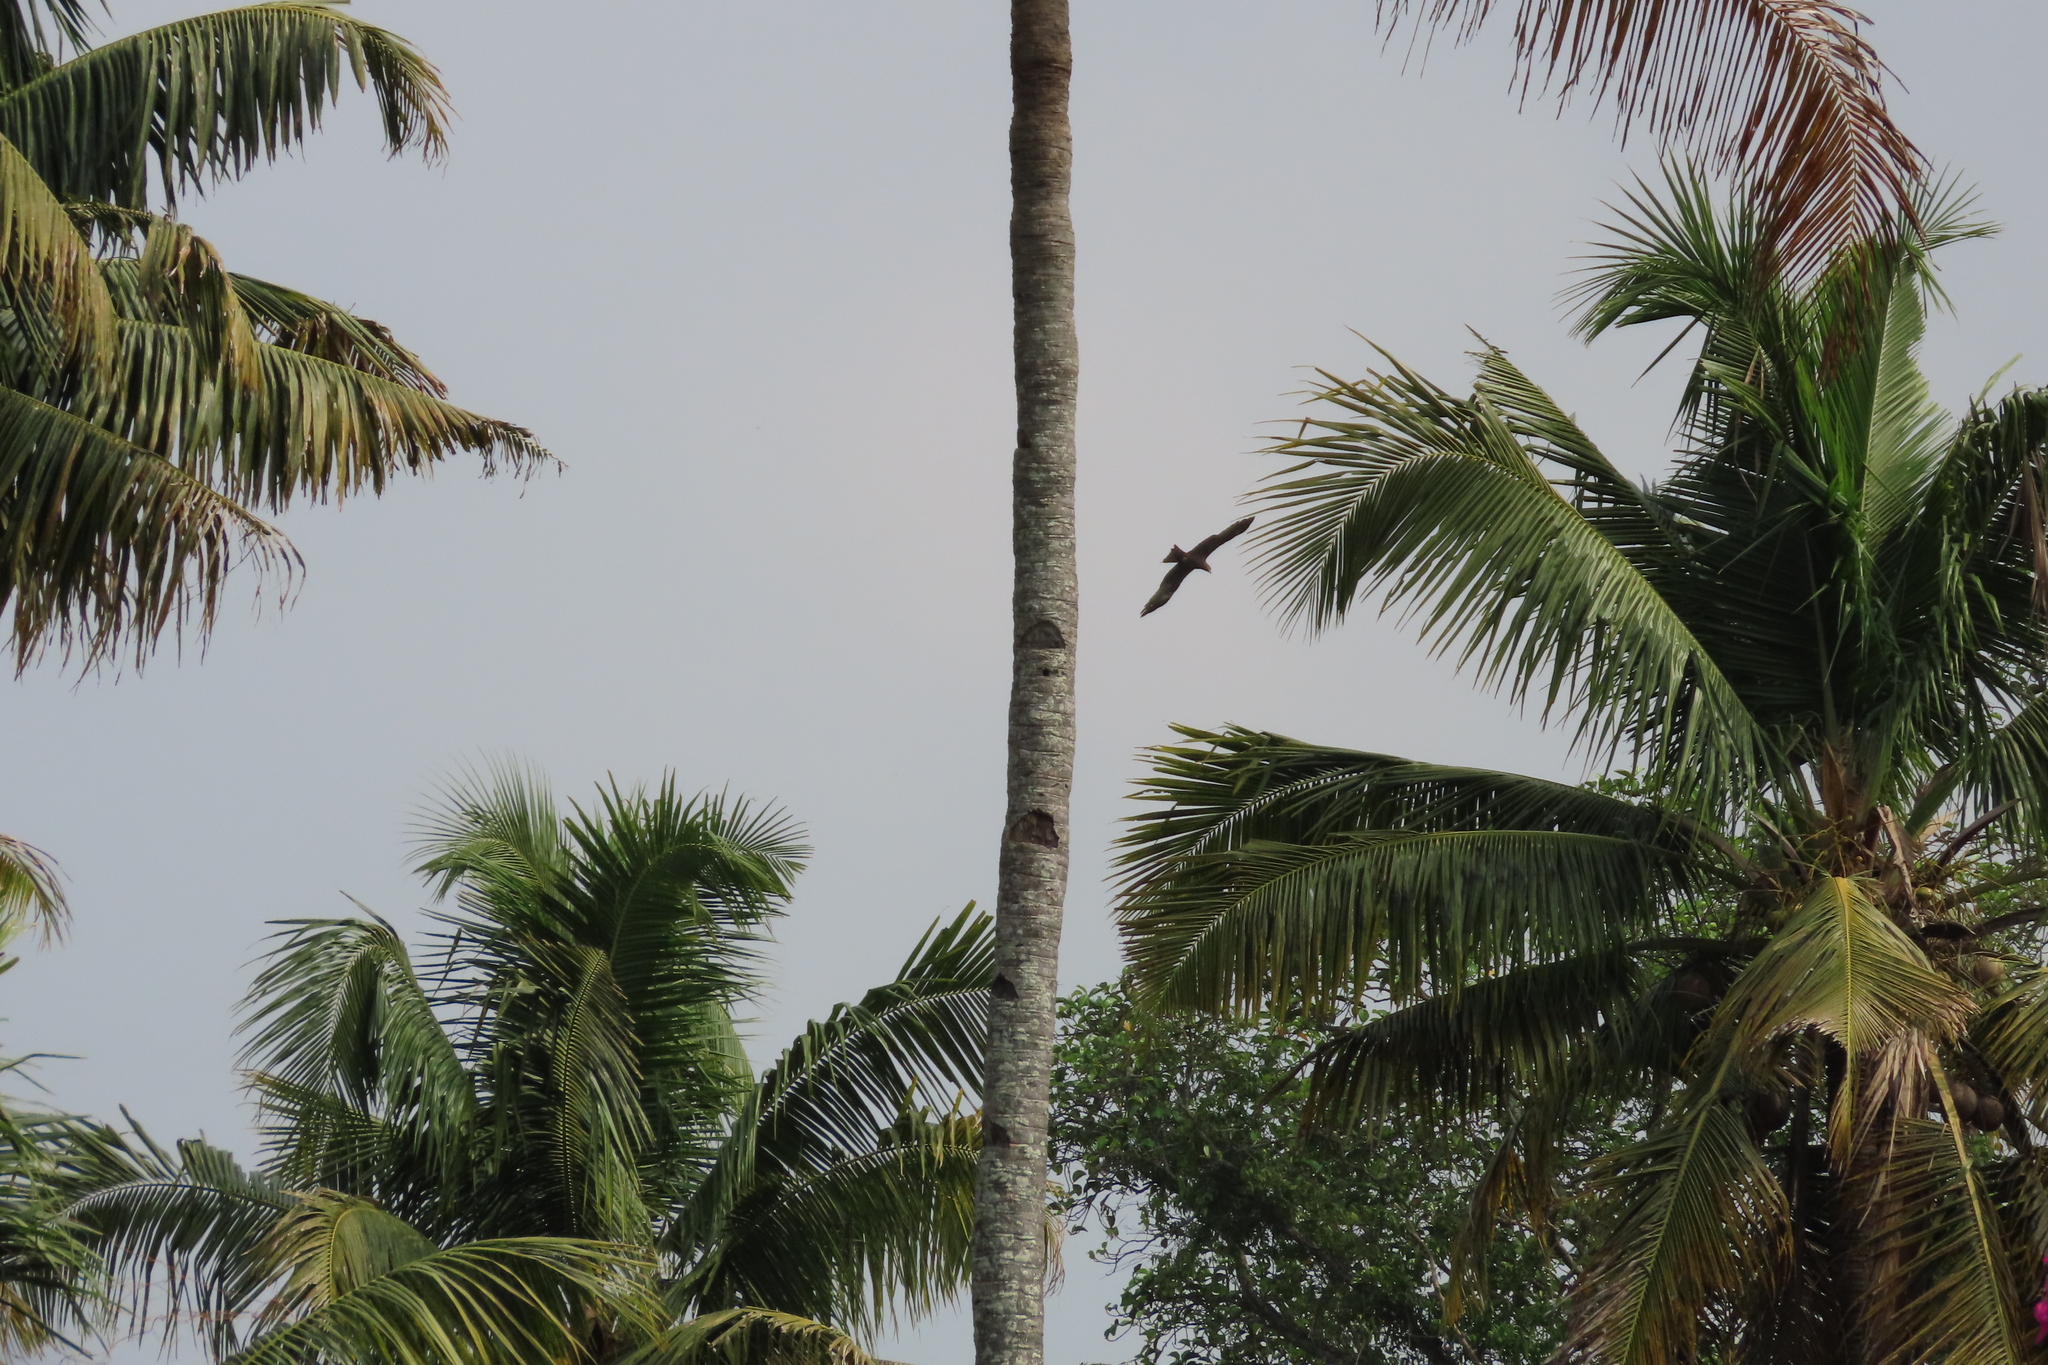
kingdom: Animalia
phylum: Chordata
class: Aves
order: Accipitriformes
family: Accipitridae
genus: Milvus
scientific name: Milvus migrans
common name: Black kite
